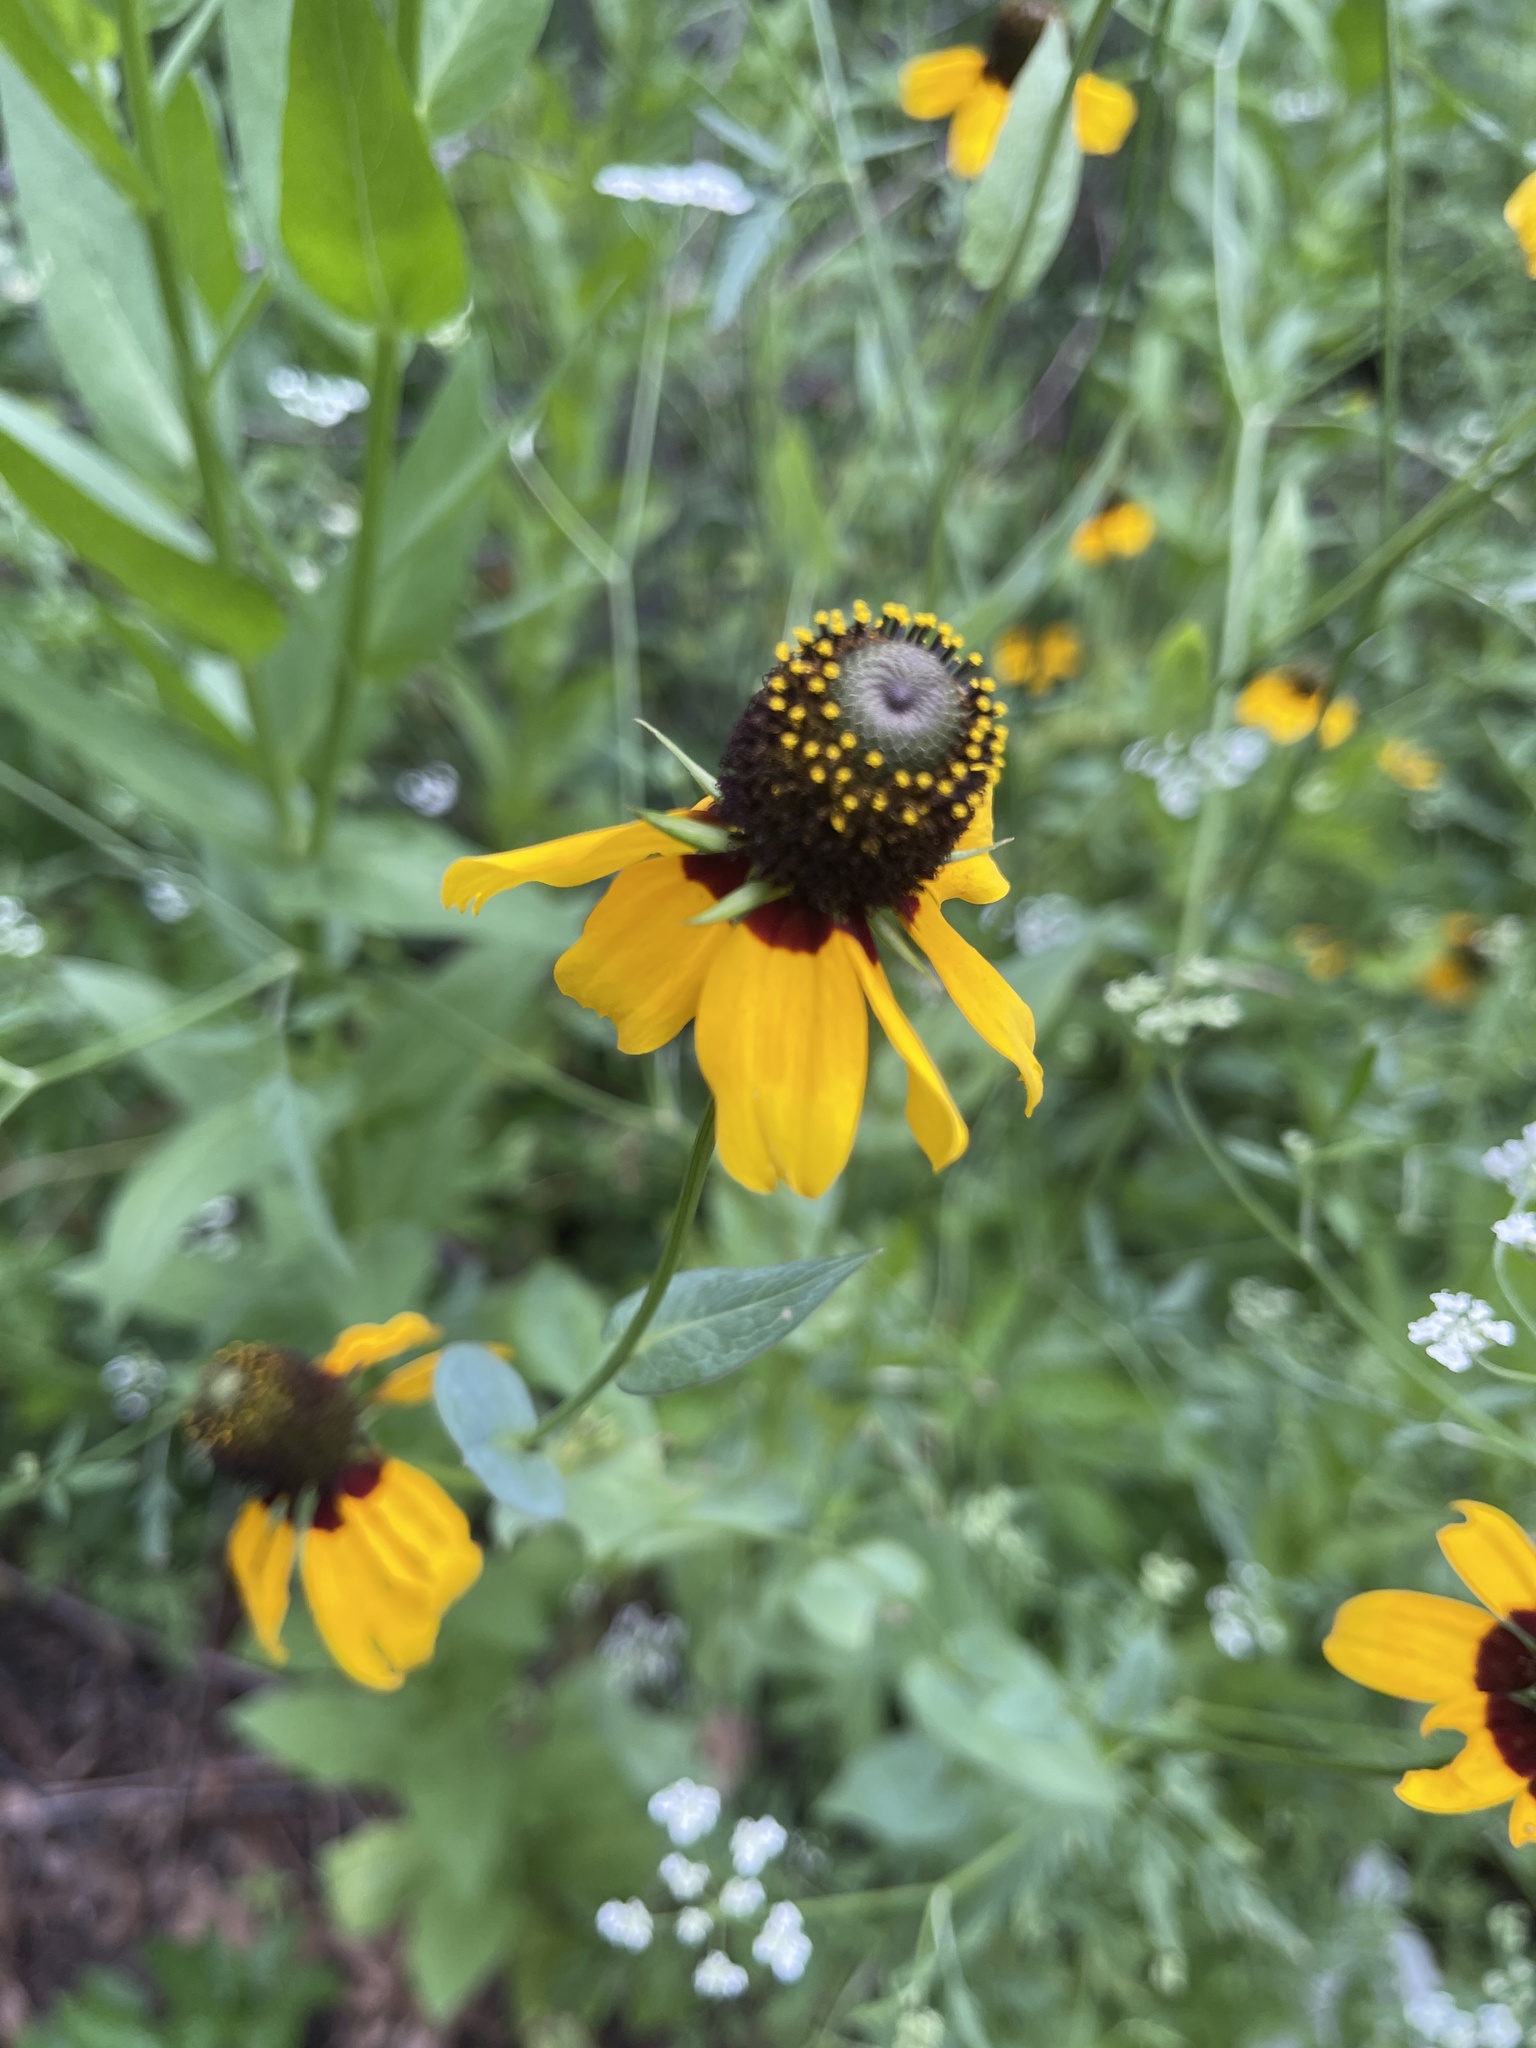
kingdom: Plantae
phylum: Tracheophyta
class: Magnoliopsida
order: Asterales
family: Asteraceae
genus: Rudbeckia
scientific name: Rudbeckia amplexicaulis
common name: Clasping-leaf coneflower
